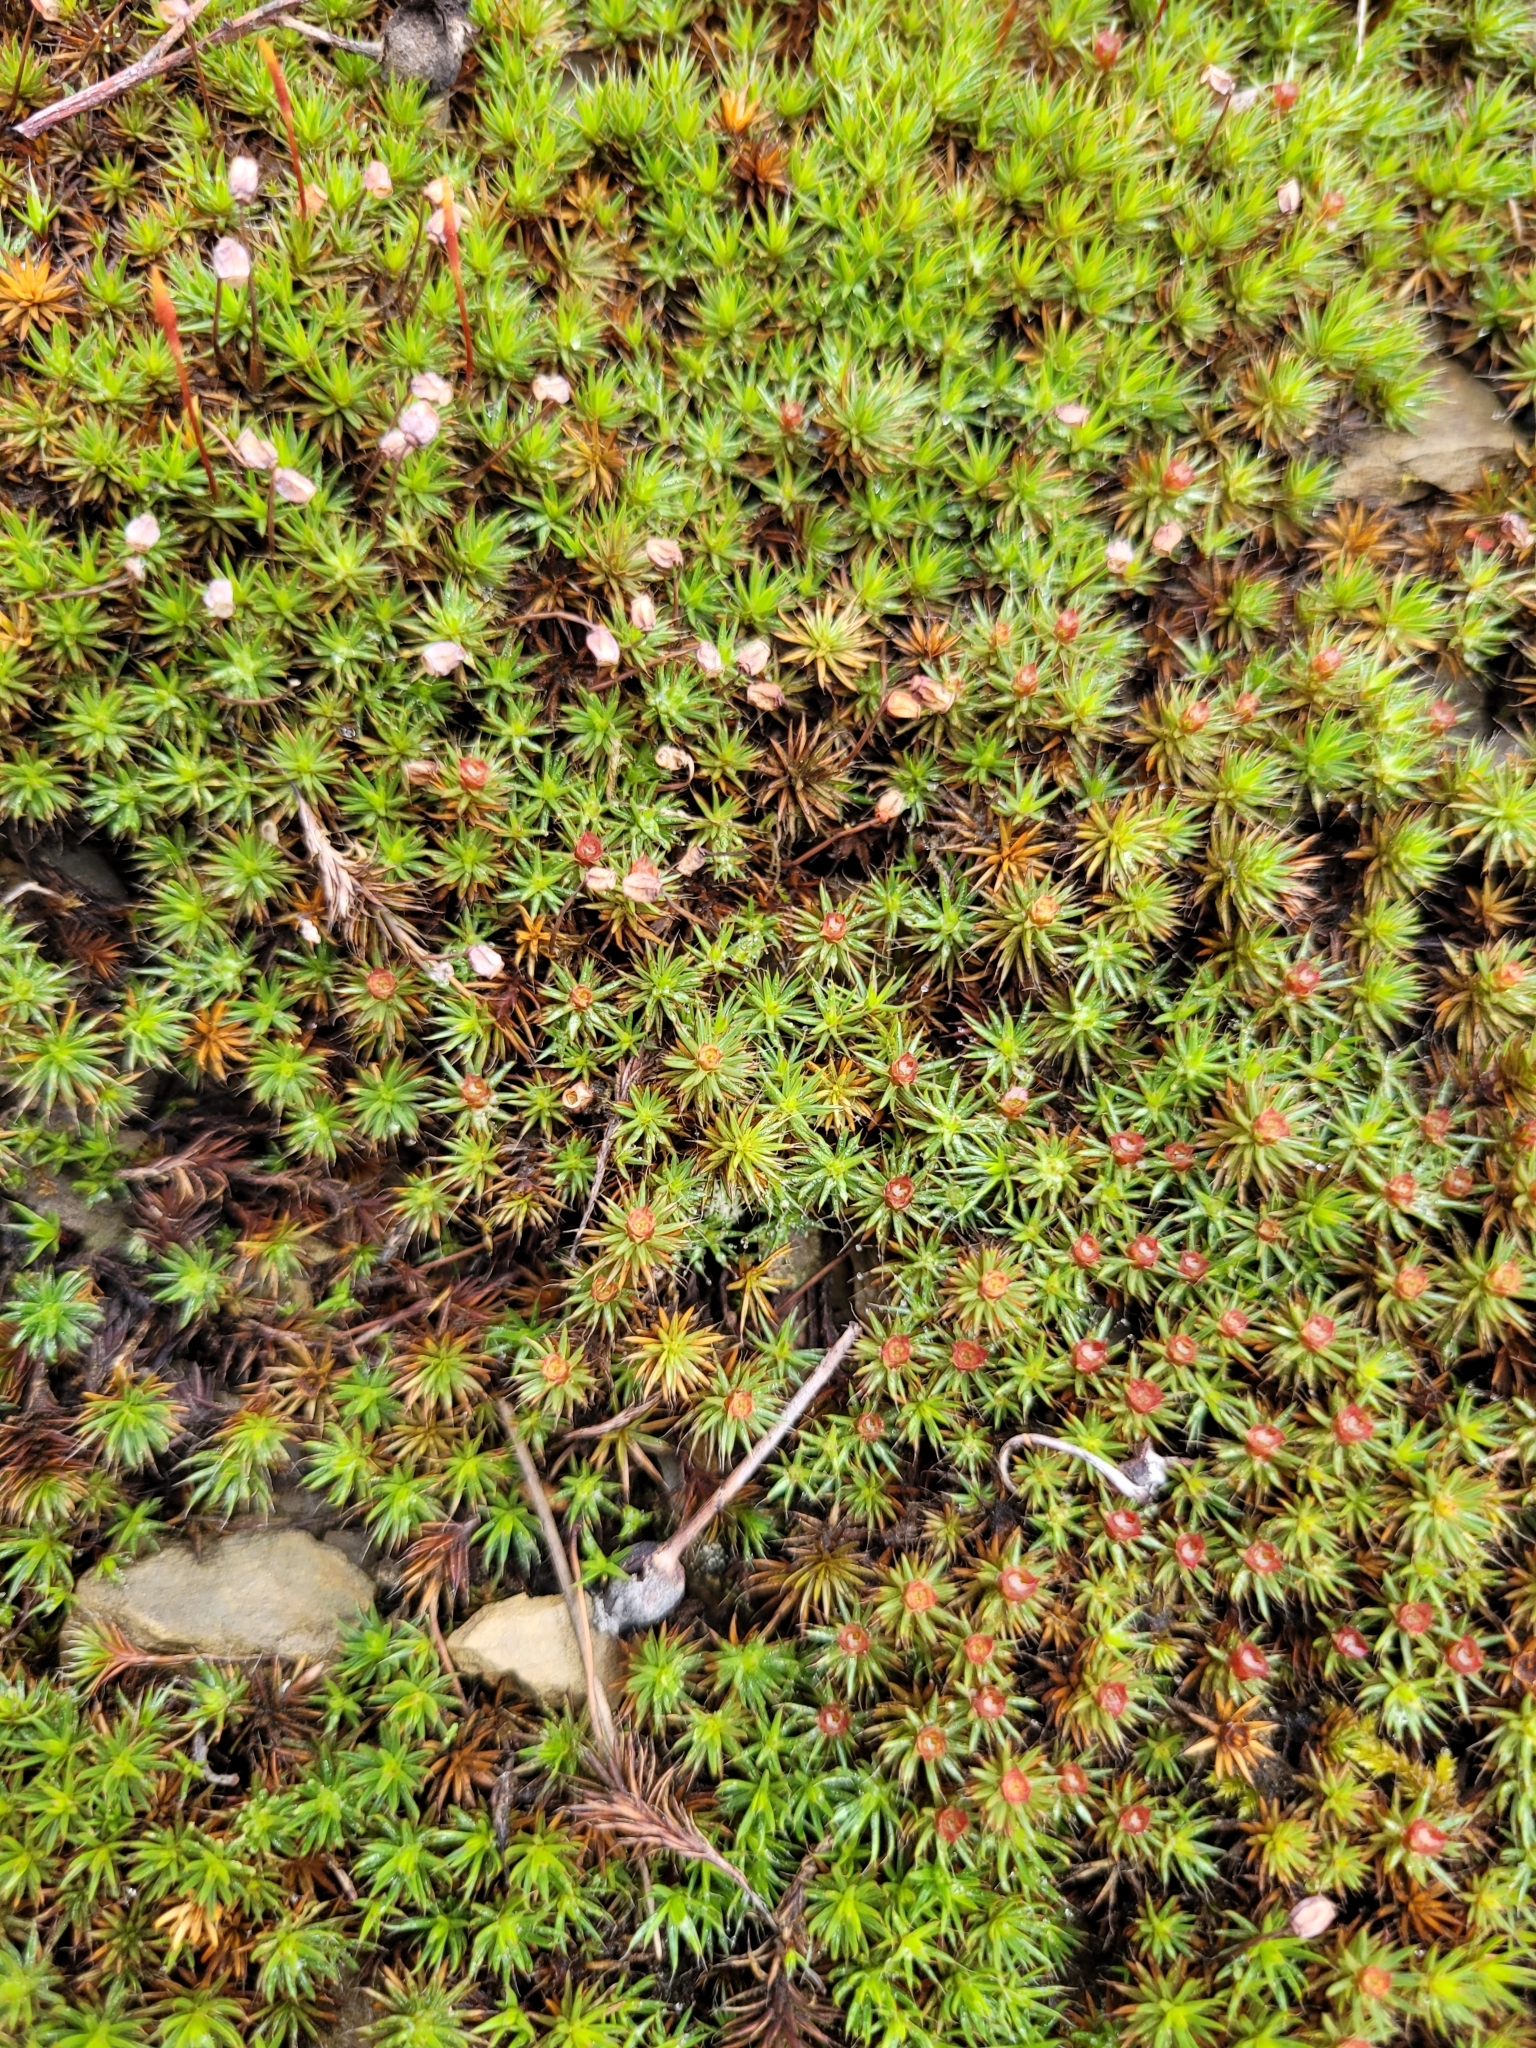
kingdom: Plantae
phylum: Bryophyta
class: Polytrichopsida
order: Polytrichales
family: Polytrichaceae
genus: Polytrichum
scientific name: Polytrichum piliferum
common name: Bristly haircap
